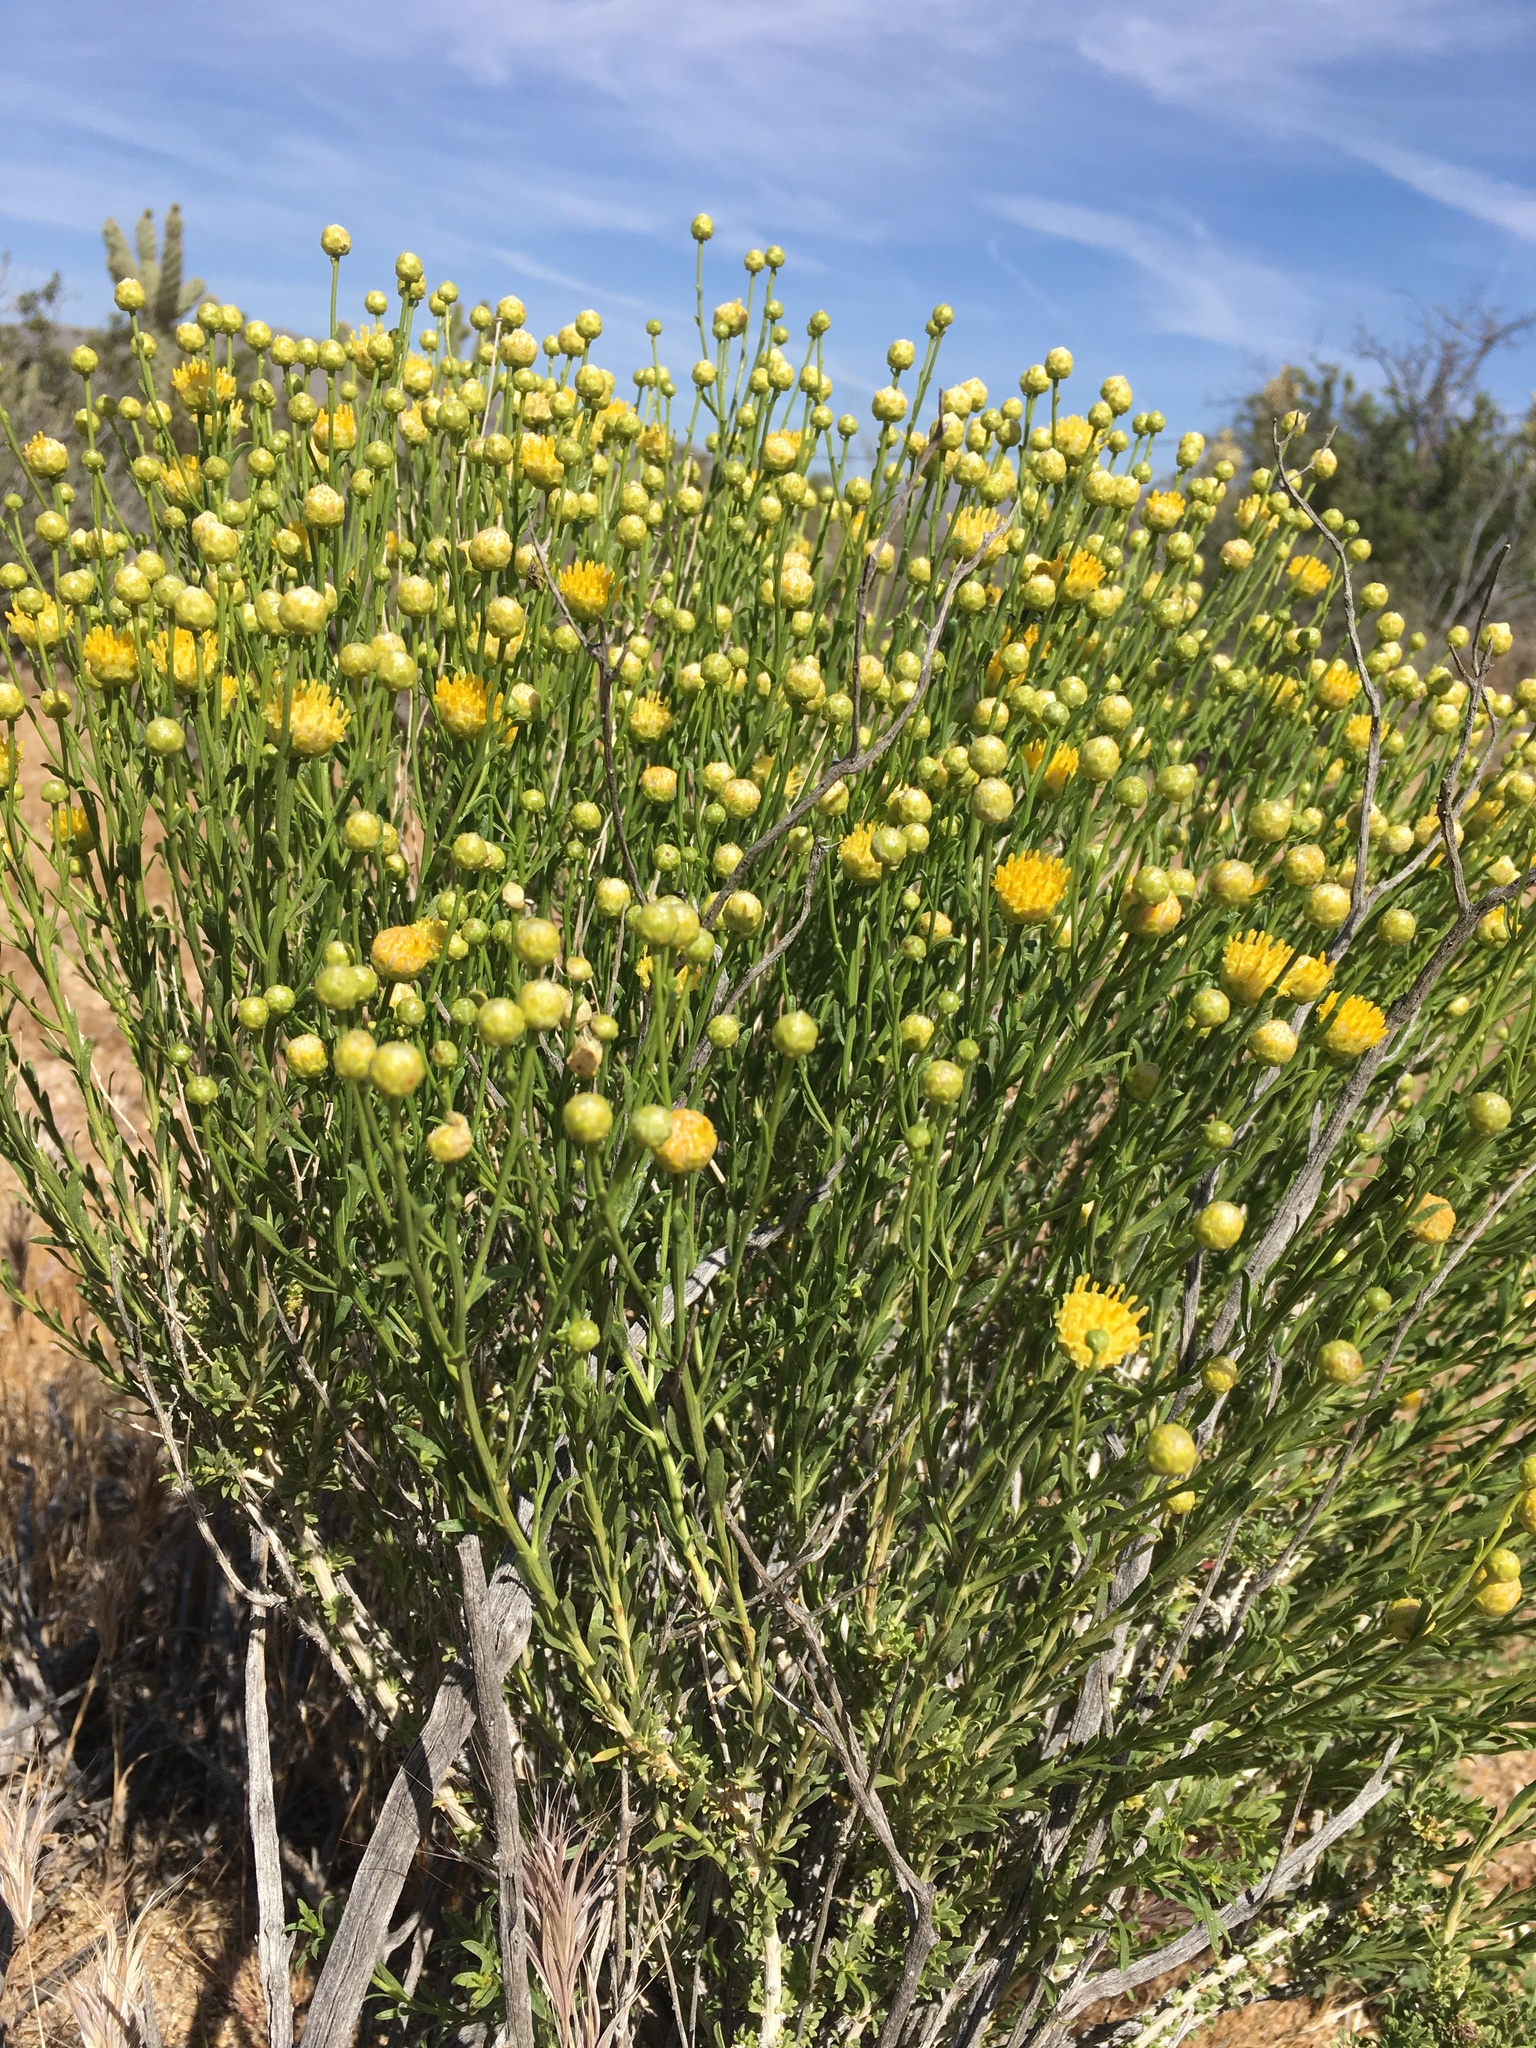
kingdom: Plantae
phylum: Tracheophyta
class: Magnoliopsida
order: Asterales
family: Asteraceae
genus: Acamptopappus
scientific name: Acamptopappus sphaerocephalus
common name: Goldenhead
